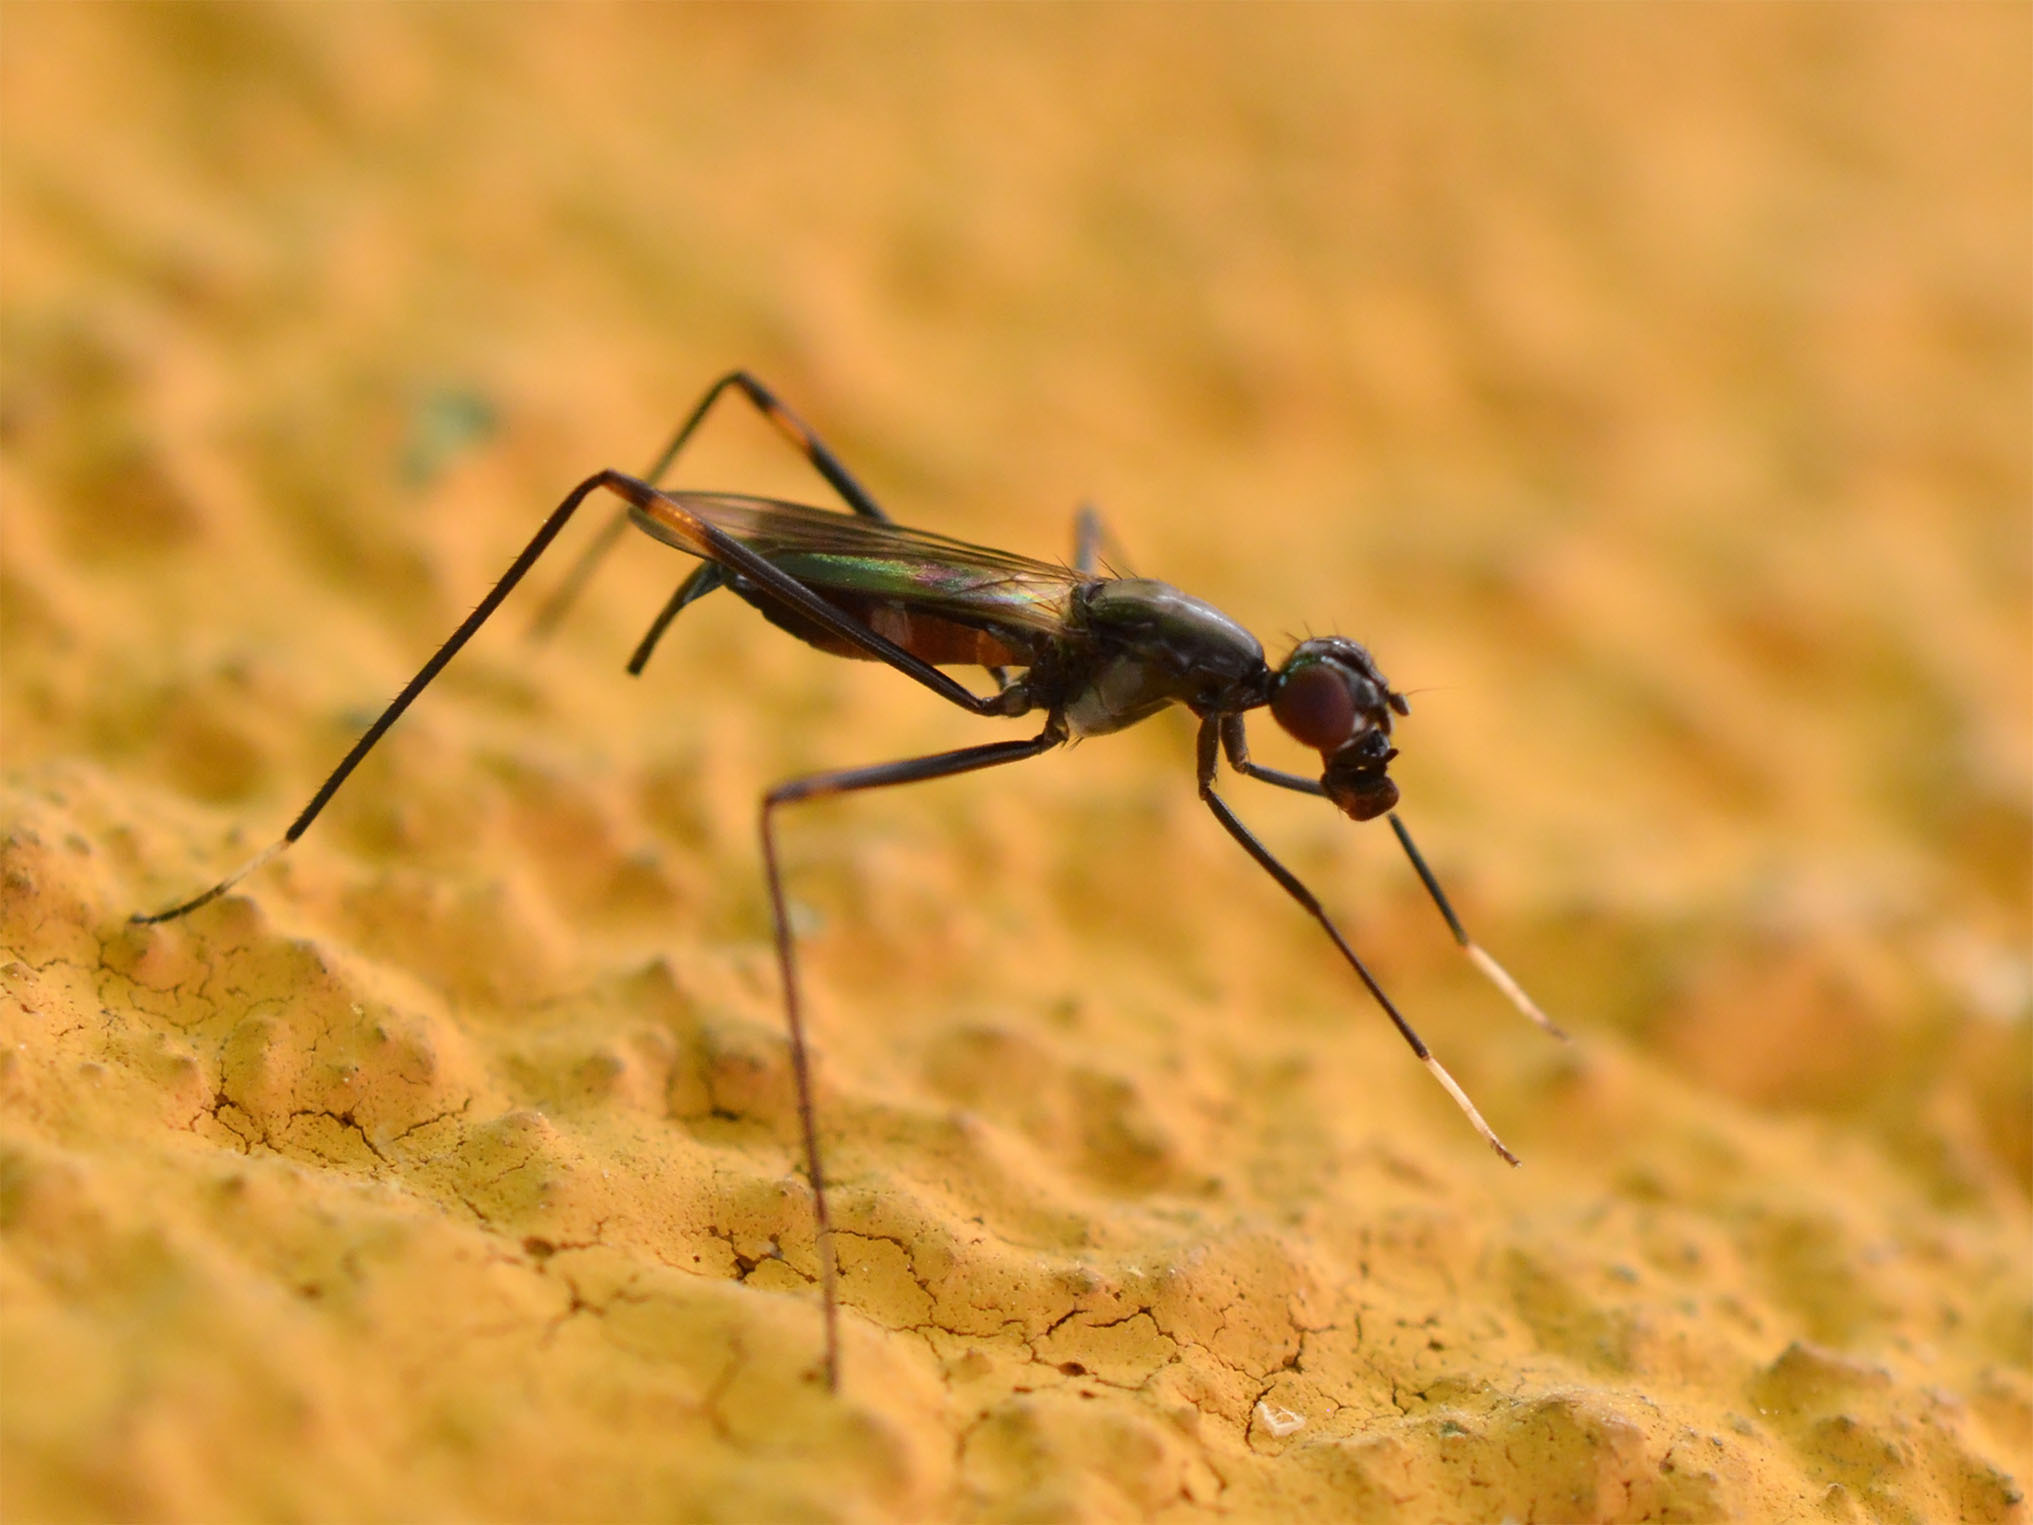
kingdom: Animalia
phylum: Arthropoda
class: Insecta
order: Diptera
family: Micropezidae
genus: Rainieria
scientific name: Rainieria calceata
